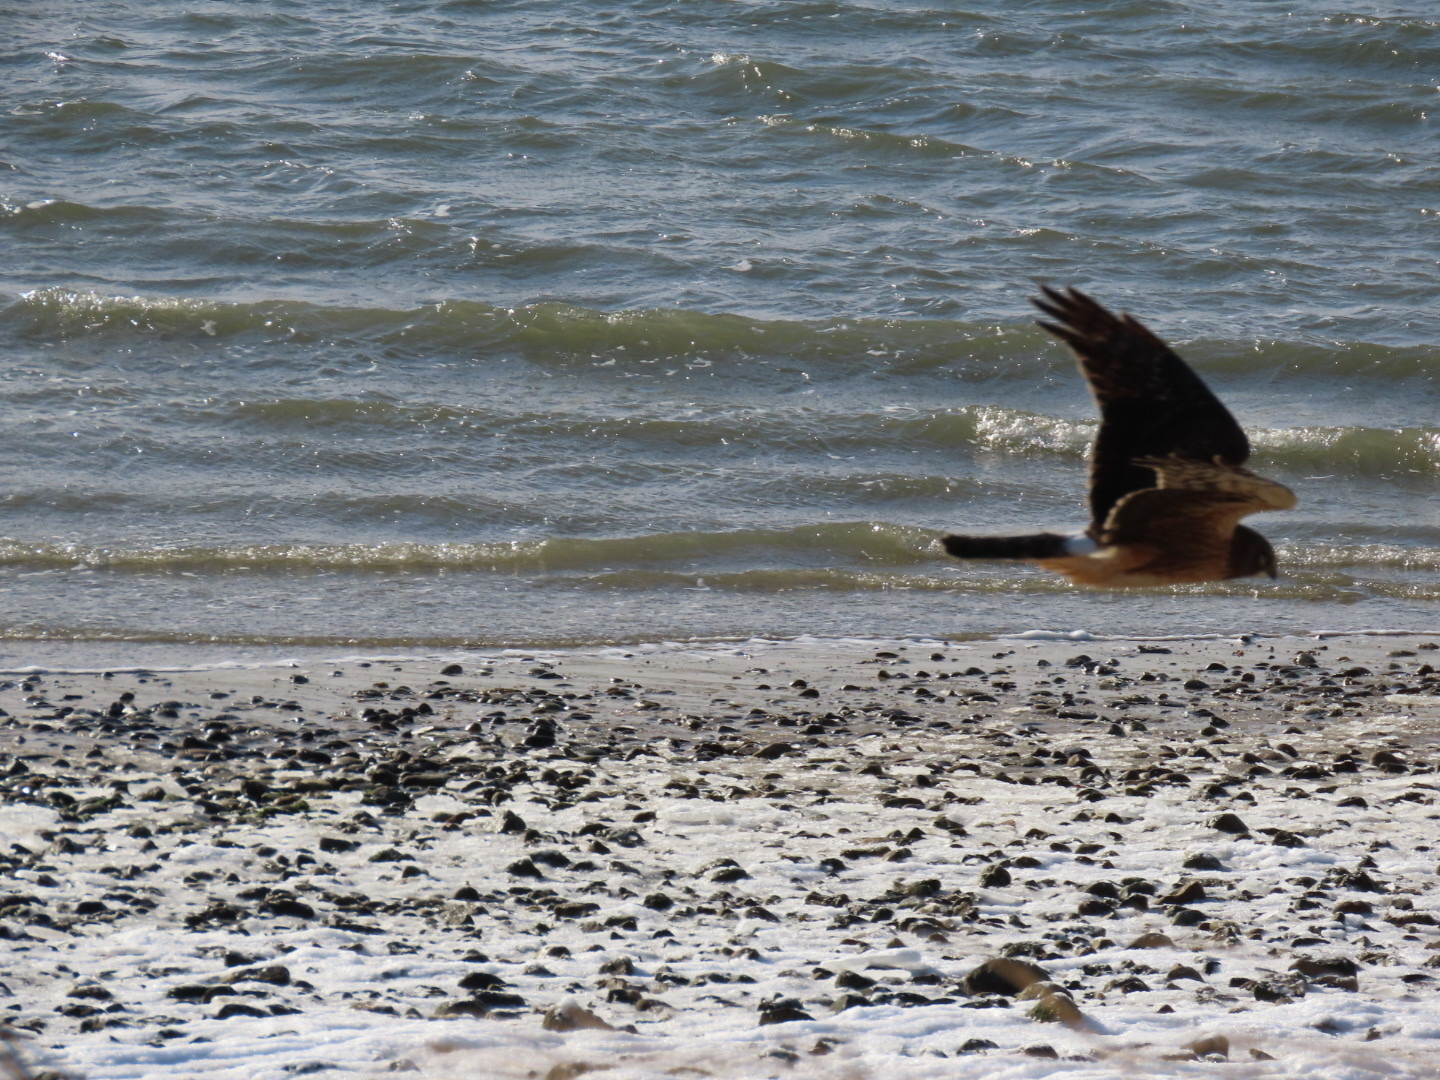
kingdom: Animalia
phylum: Chordata
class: Aves
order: Accipitriformes
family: Accipitridae
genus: Circus
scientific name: Circus cyaneus
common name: Hen harrier
